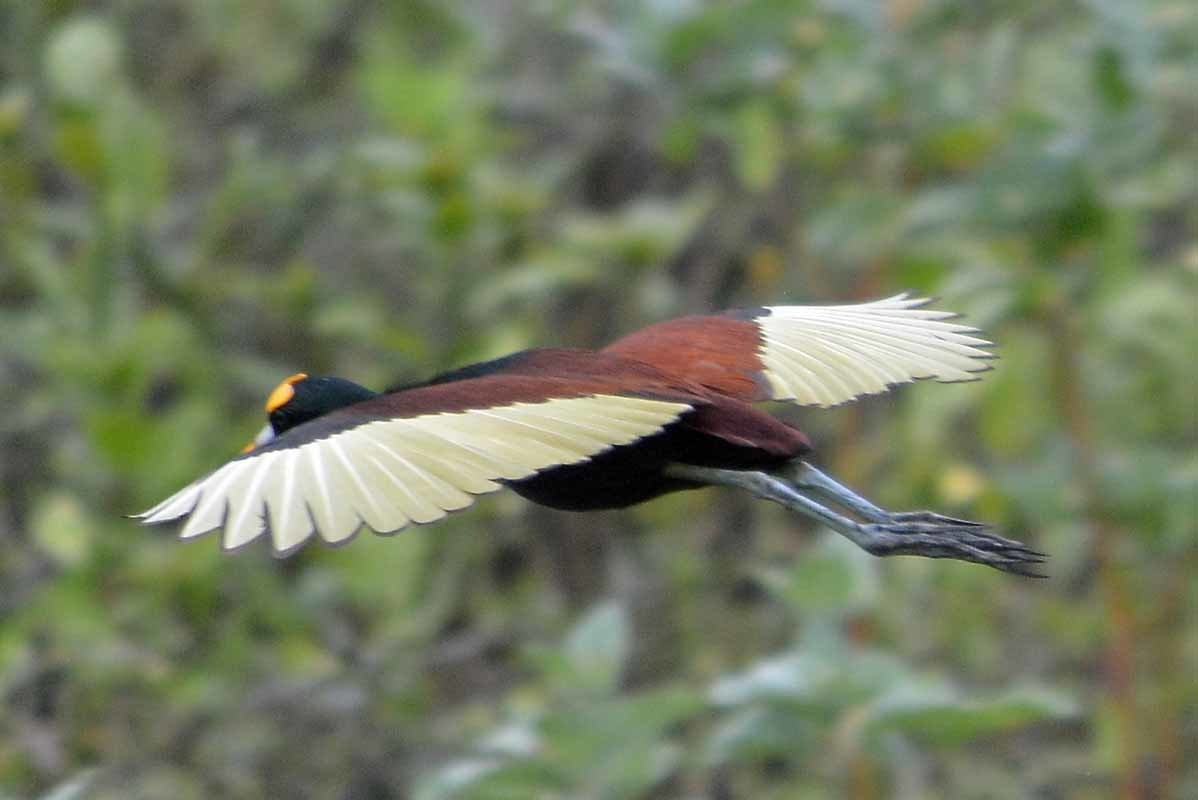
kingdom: Animalia
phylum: Chordata
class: Aves
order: Charadriiformes
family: Jacanidae
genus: Jacana
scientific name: Jacana spinosa
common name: Northern jacana
